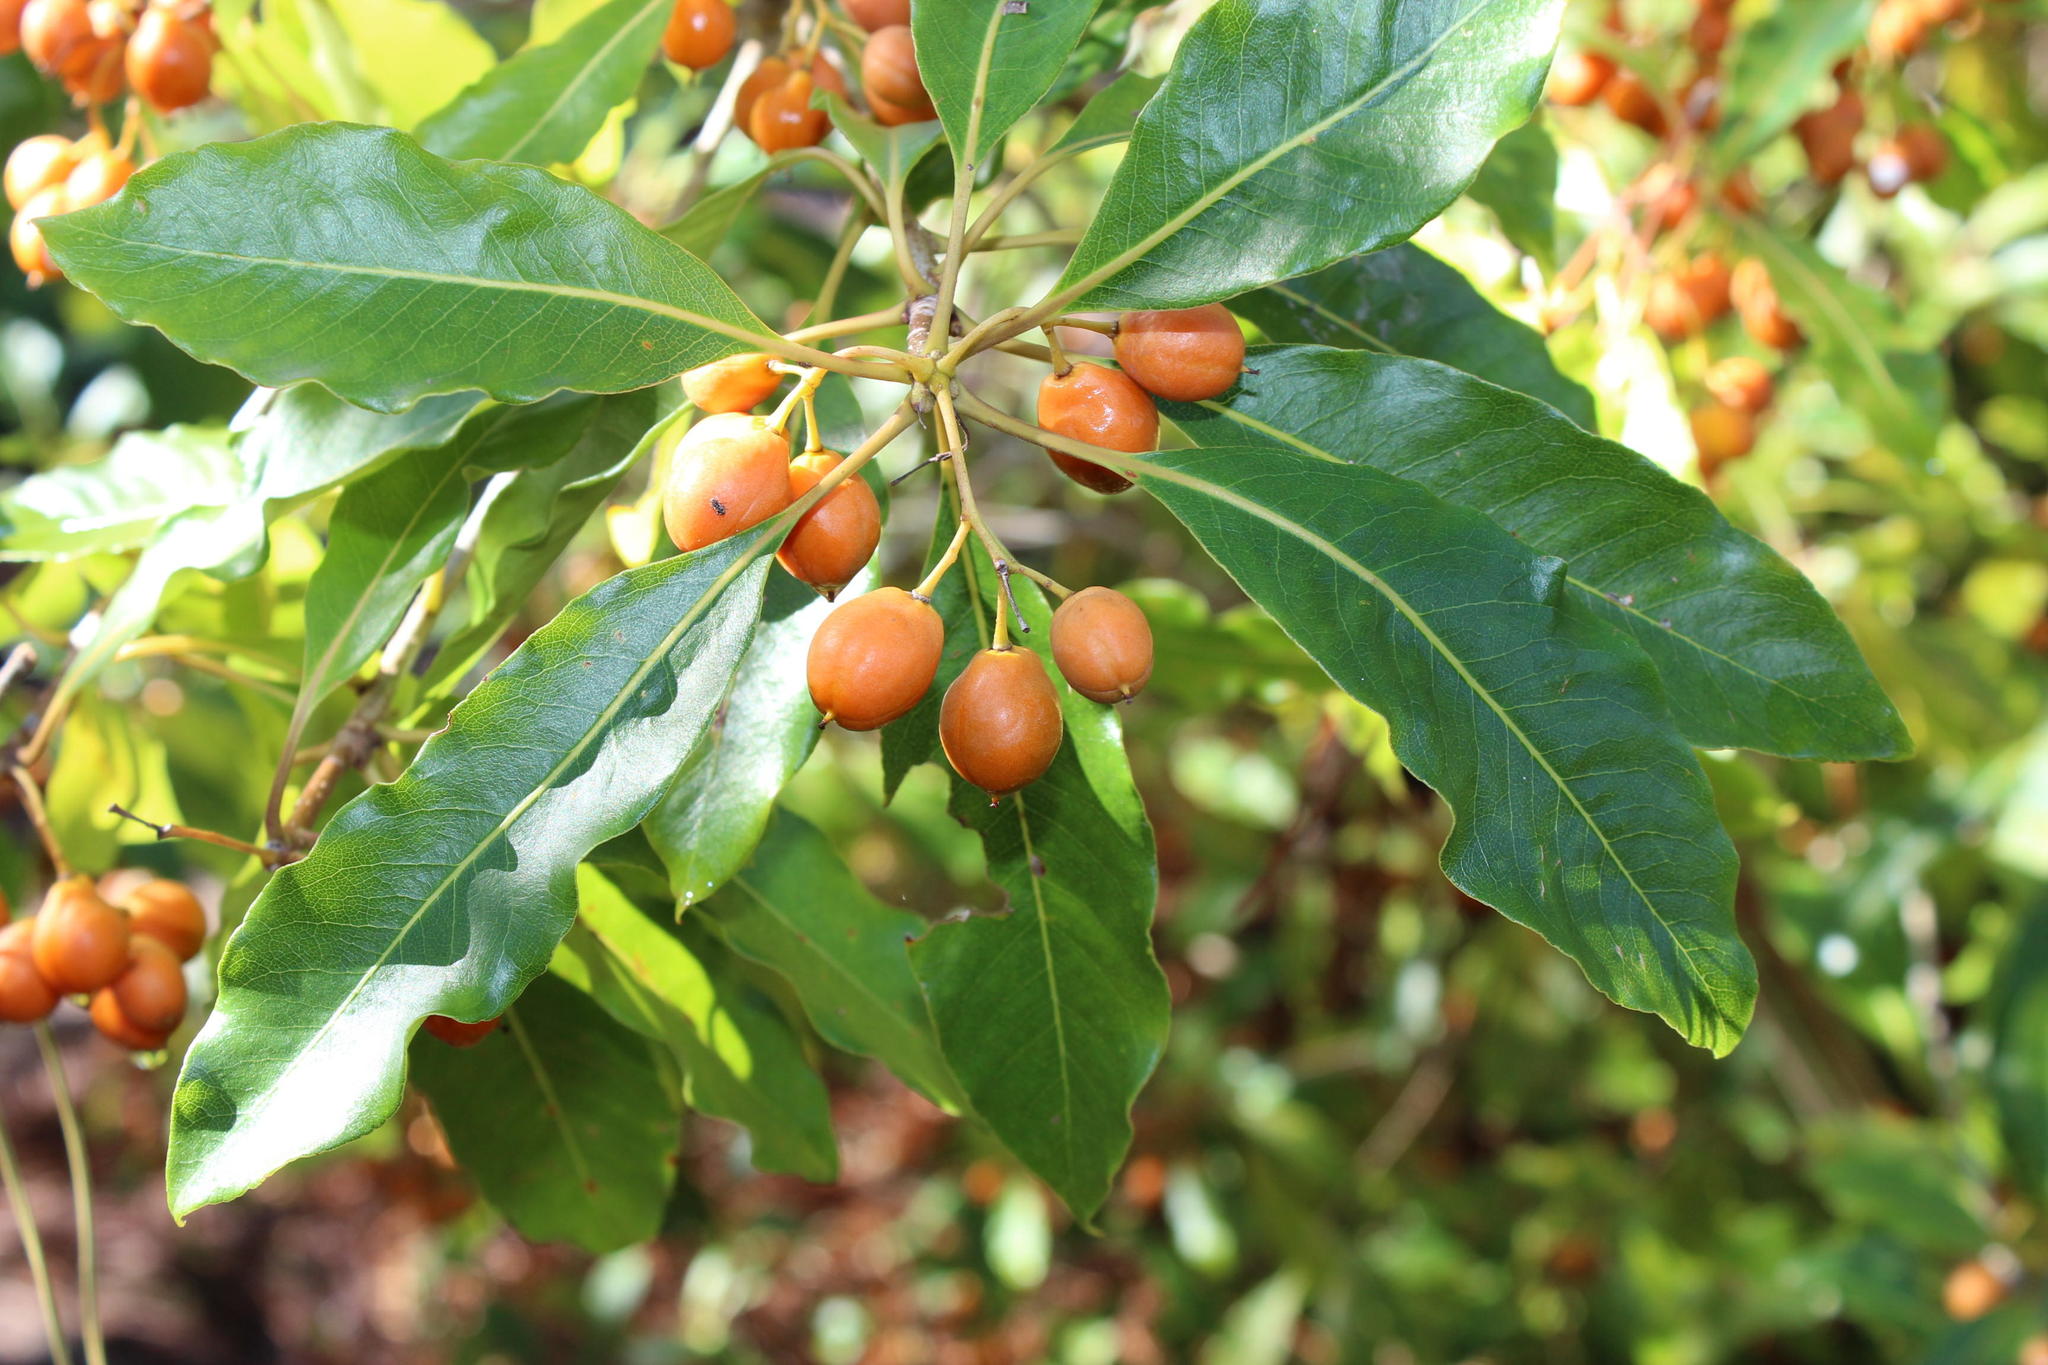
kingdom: Plantae
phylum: Tracheophyta
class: Magnoliopsida
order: Apiales
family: Pittosporaceae
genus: Pittosporum
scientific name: Pittosporum undulatum
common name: Australian cheesewood
